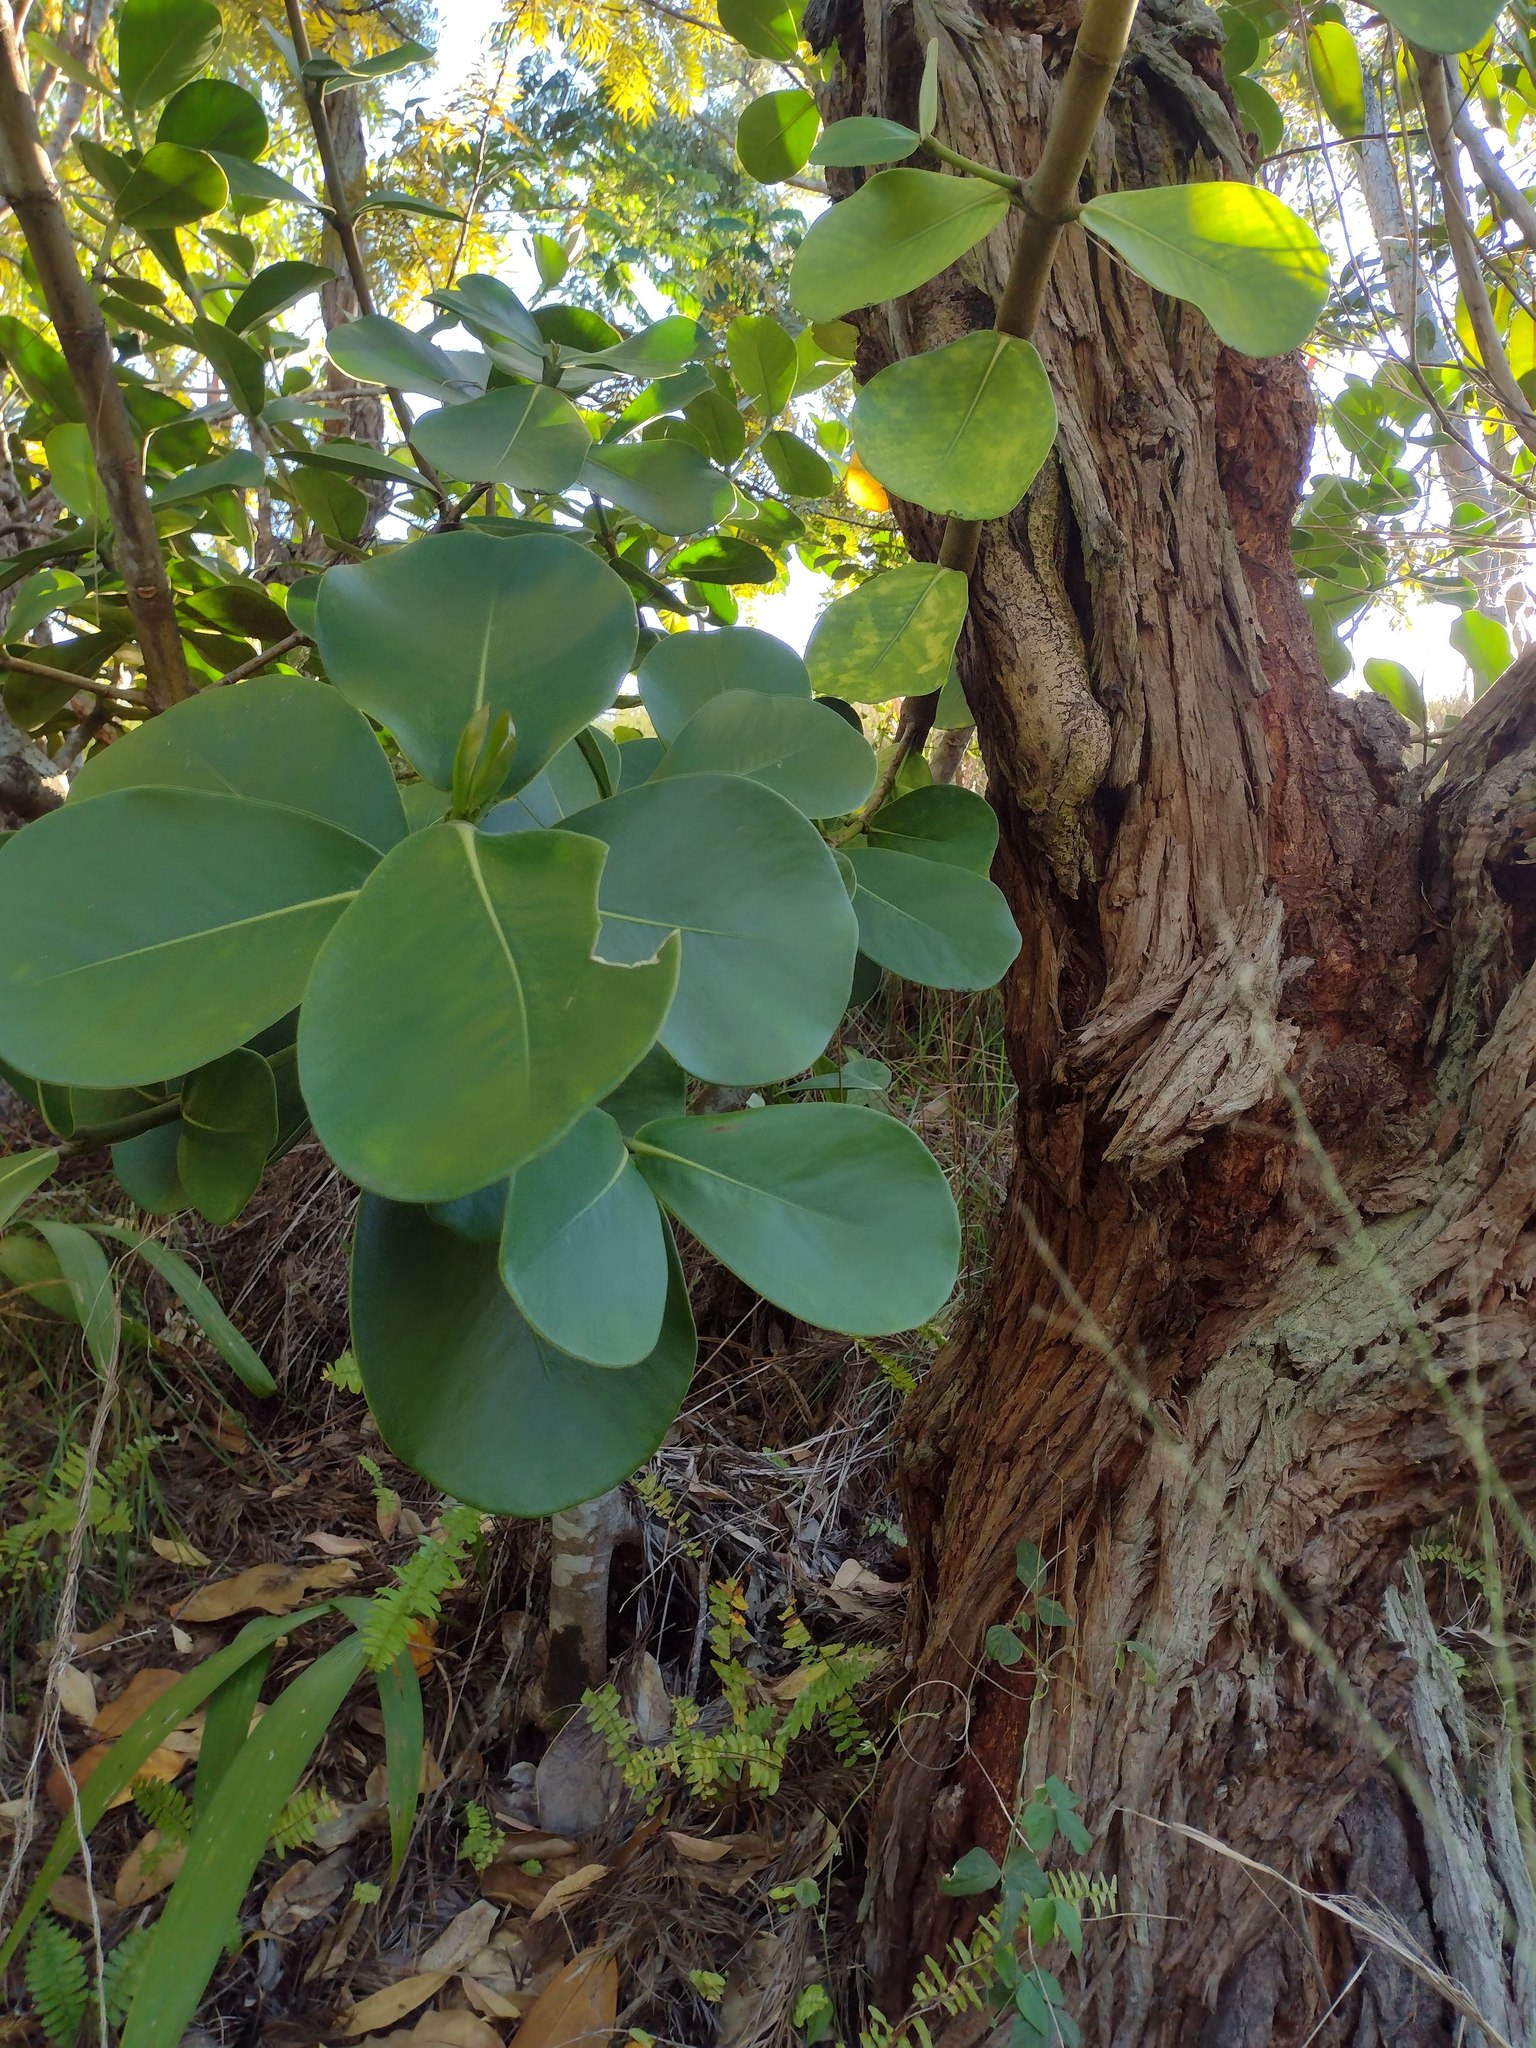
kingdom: Plantae
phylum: Tracheophyta
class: Magnoliopsida
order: Malpighiales
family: Clusiaceae
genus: Clusia
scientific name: Clusia rosea
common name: Scotch attorney
